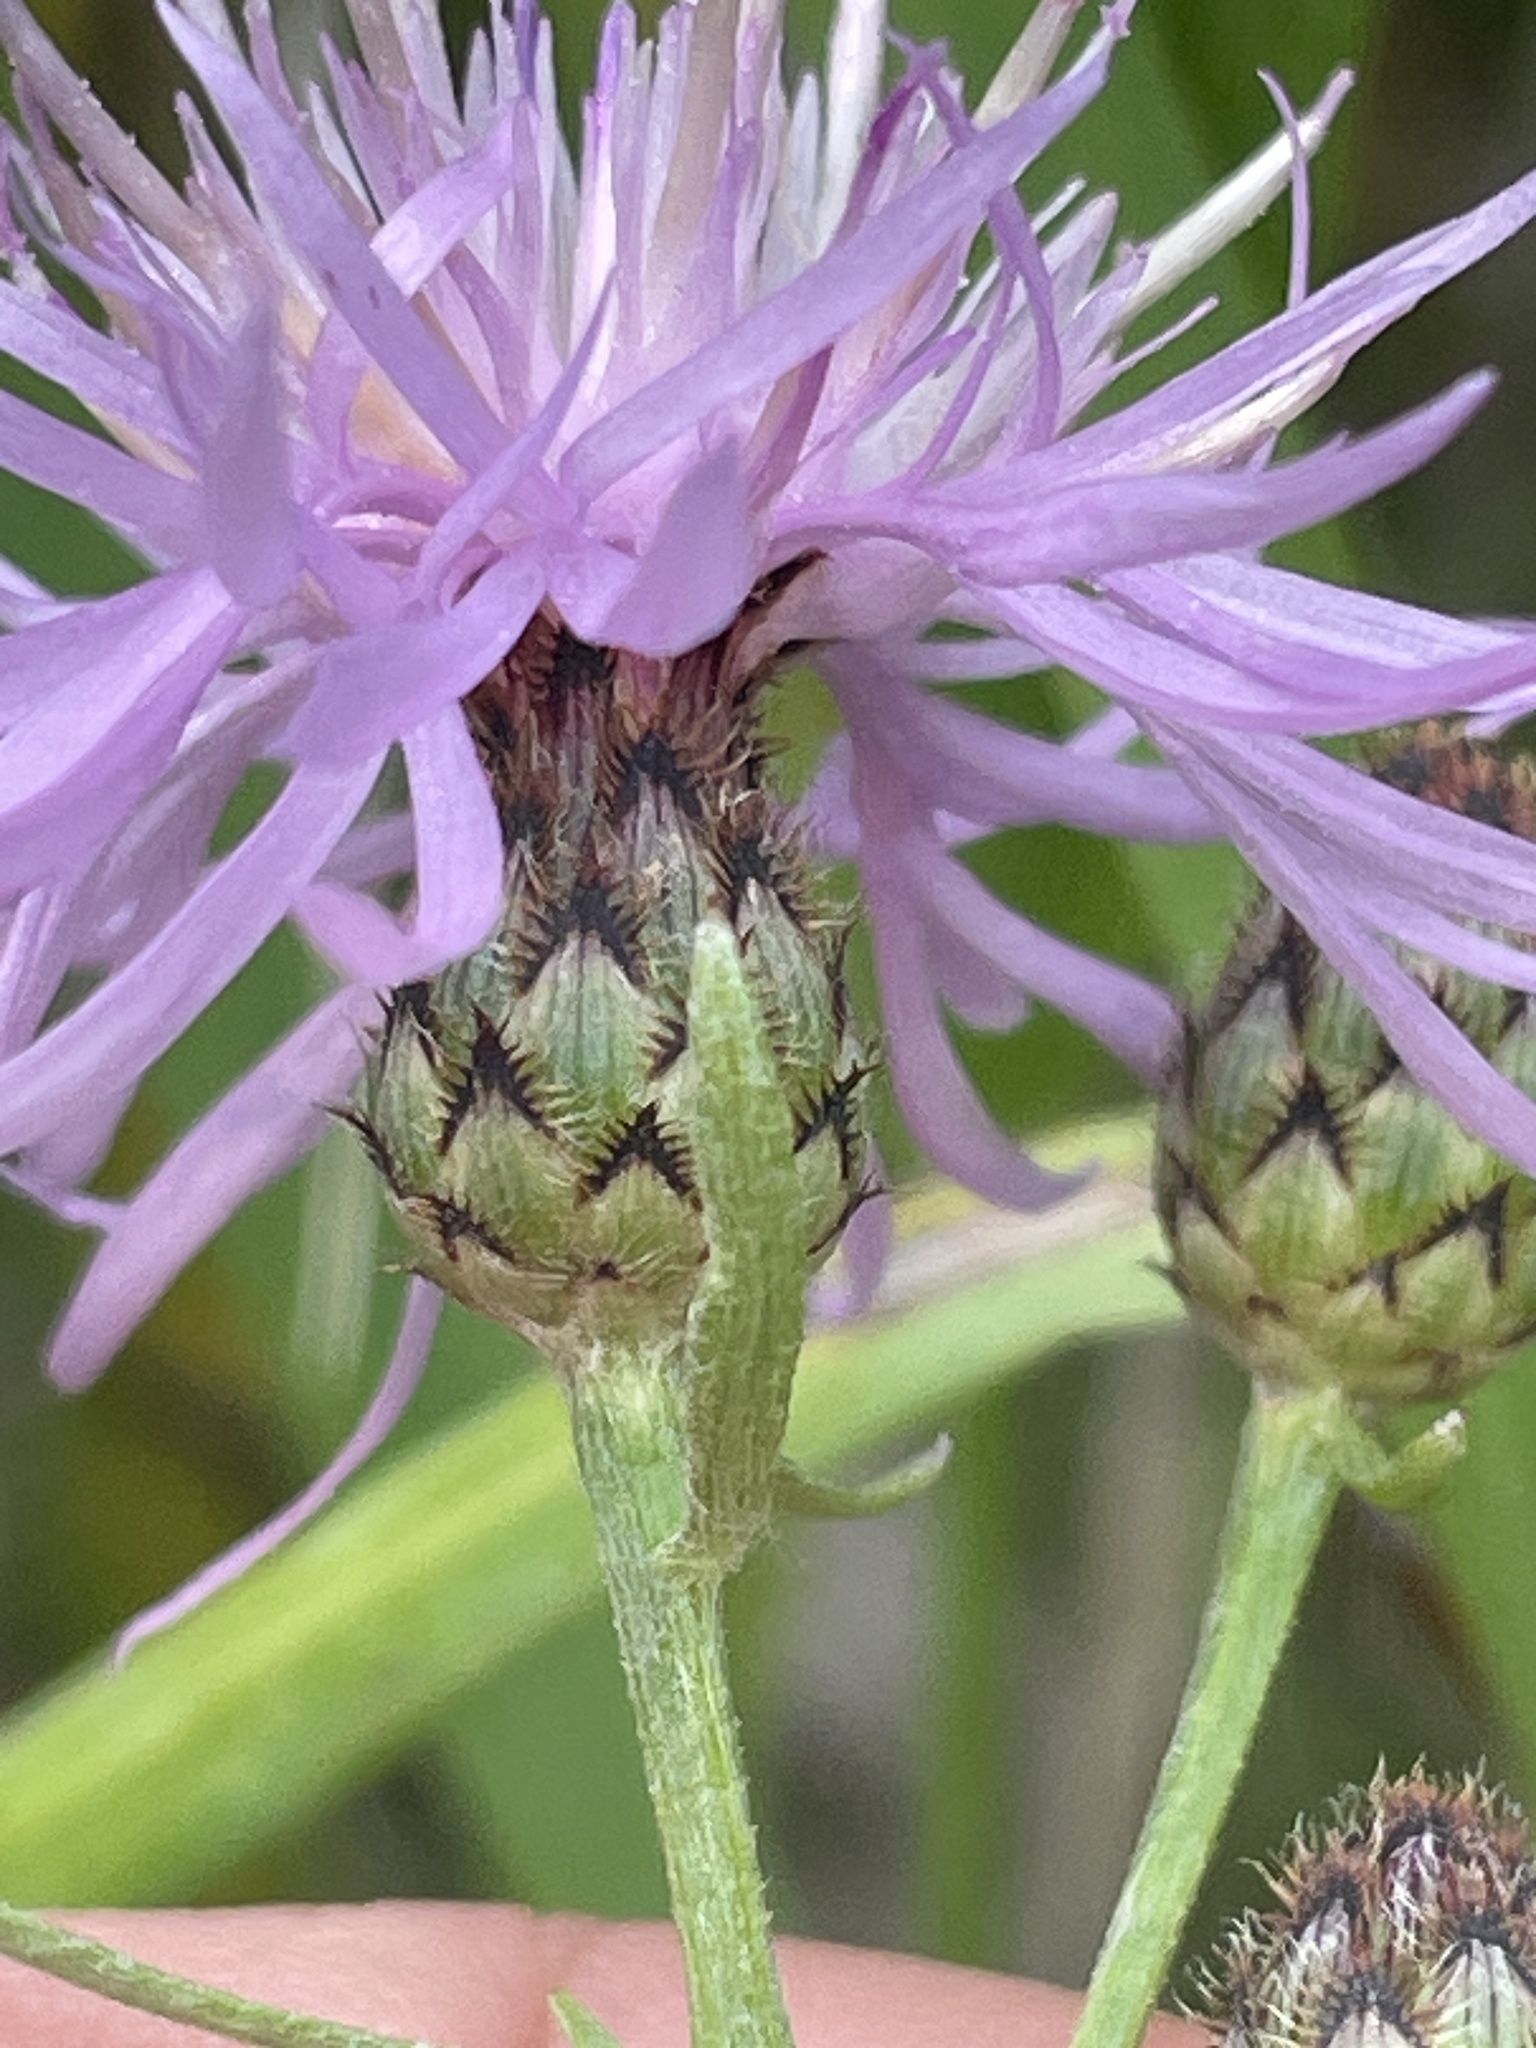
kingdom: Plantae
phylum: Tracheophyta
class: Magnoliopsida
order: Asterales
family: Asteraceae
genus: Centaurea
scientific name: Centaurea stoebe
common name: Spotted knapweed
